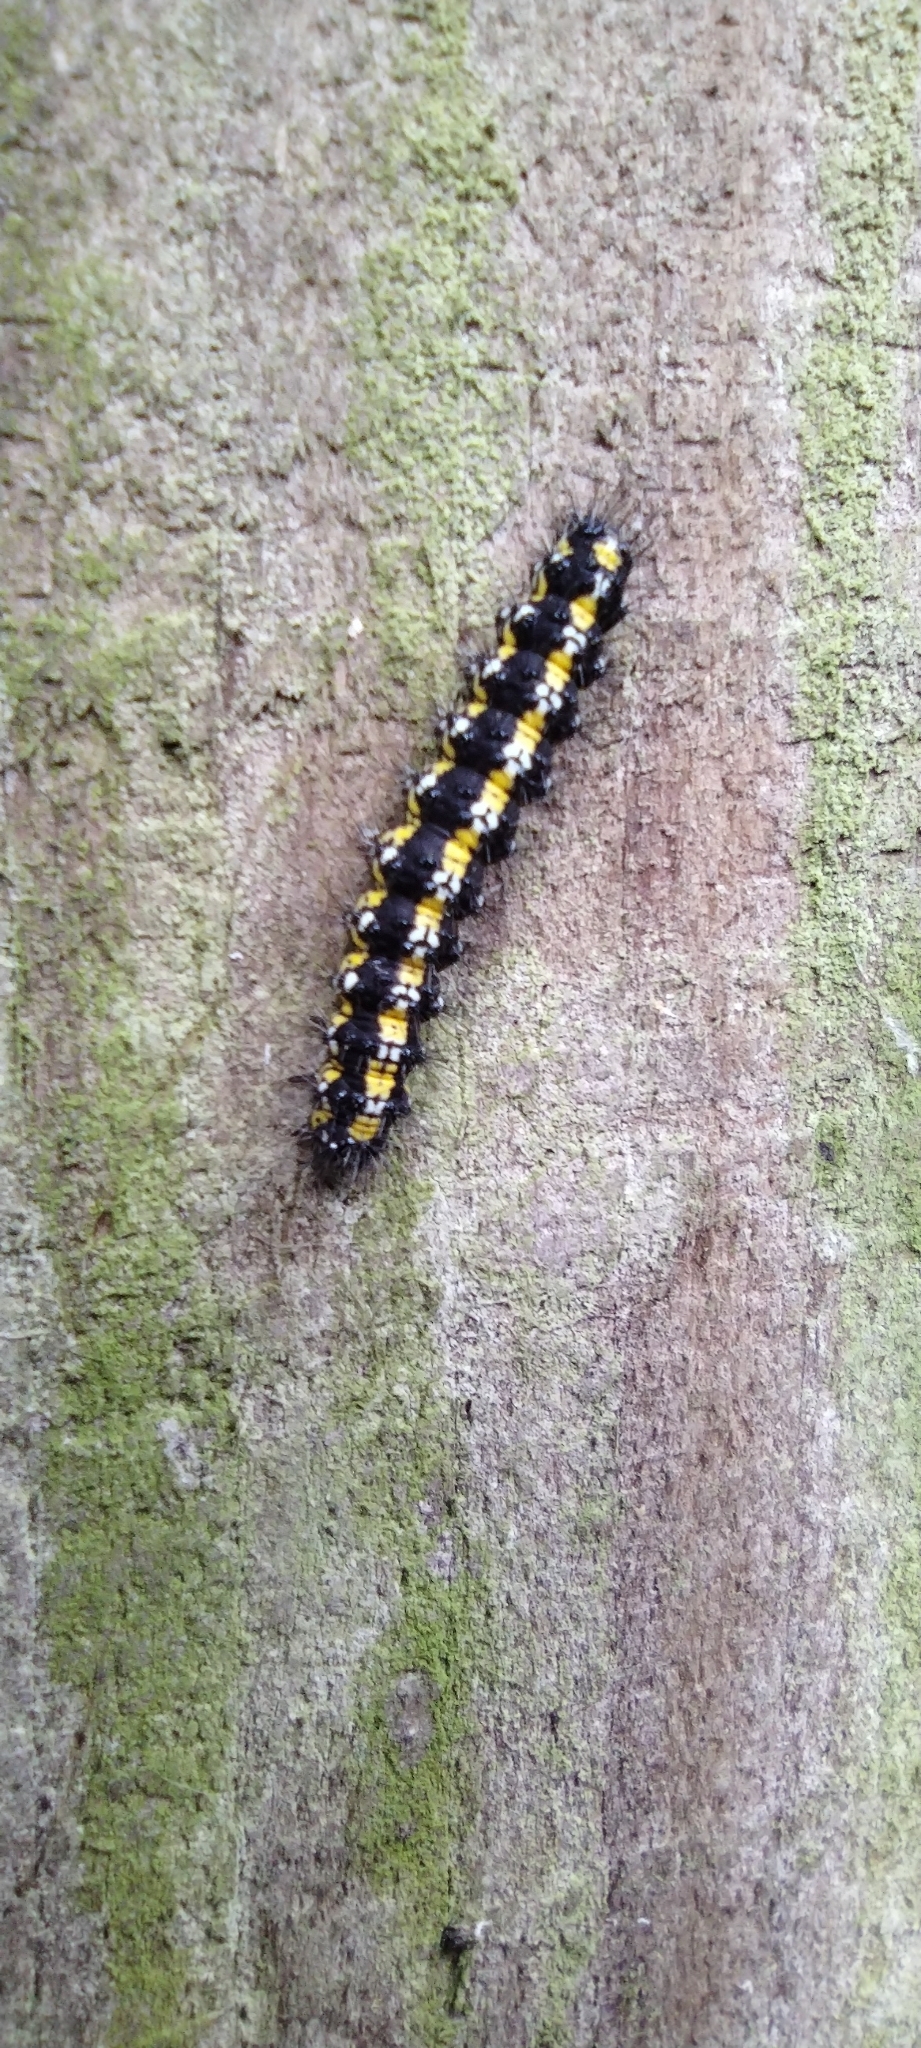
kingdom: Animalia
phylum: Arthropoda
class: Insecta
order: Lepidoptera
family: Erebidae
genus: Callimorpha
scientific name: Callimorpha dominula
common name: Scarlet tiger
